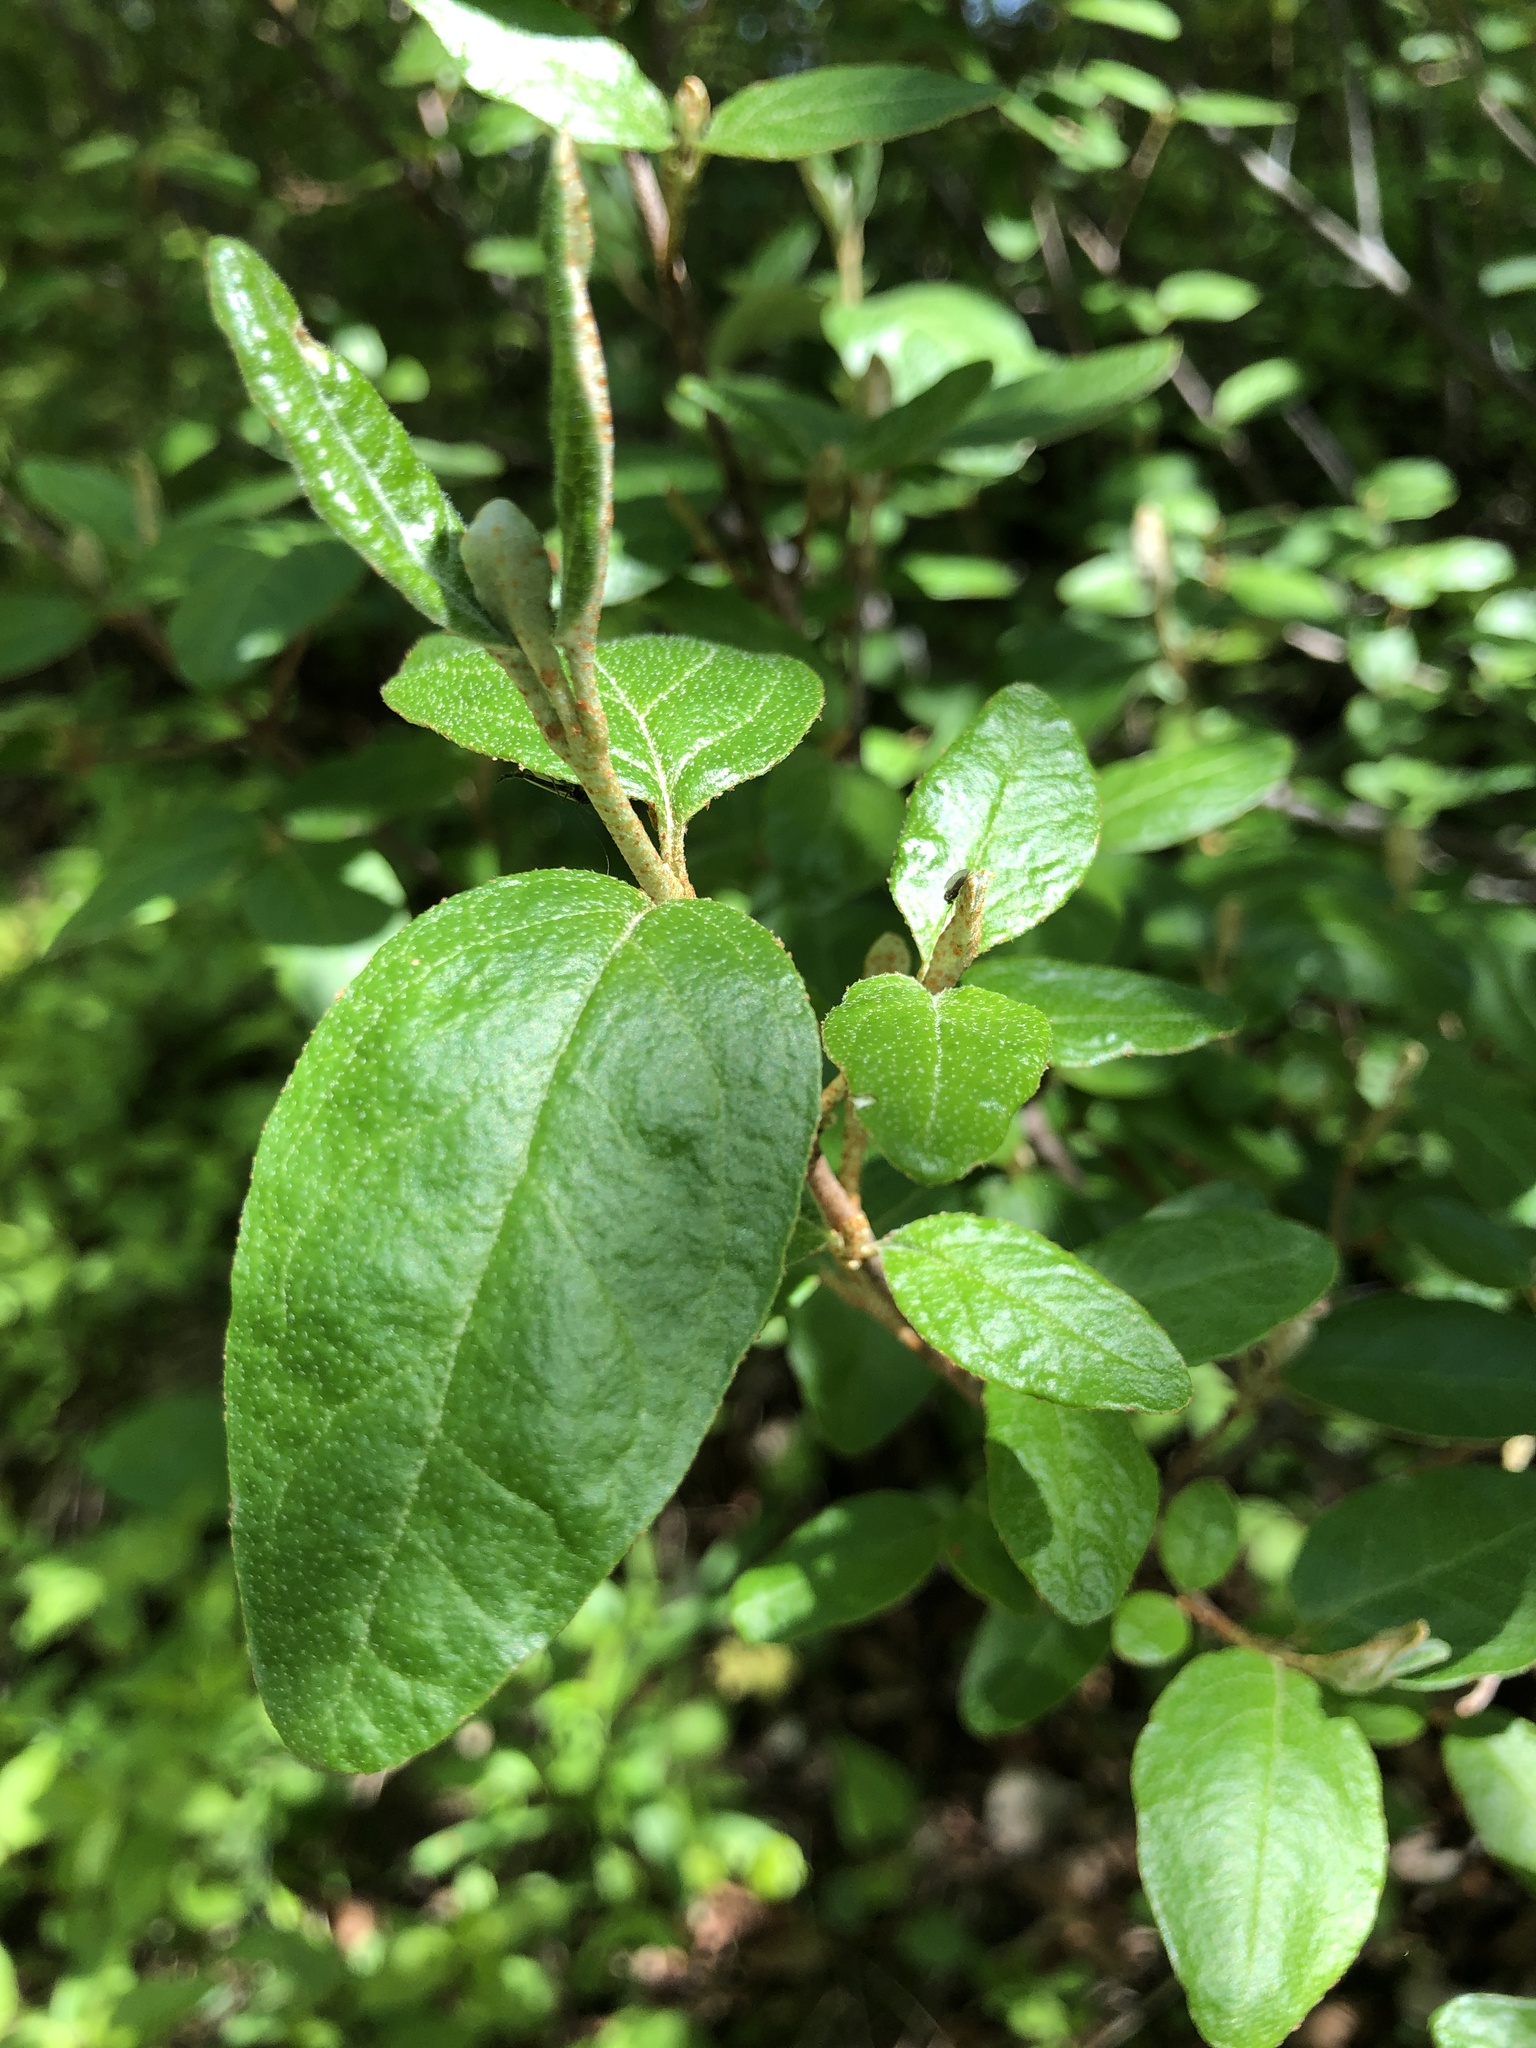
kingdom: Plantae
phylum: Tracheophyta
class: Magnoliopsida
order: Rosales
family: Elaeagnaceae
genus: Shepherdia
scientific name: Shepherdia canadensis
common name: Soapberry
